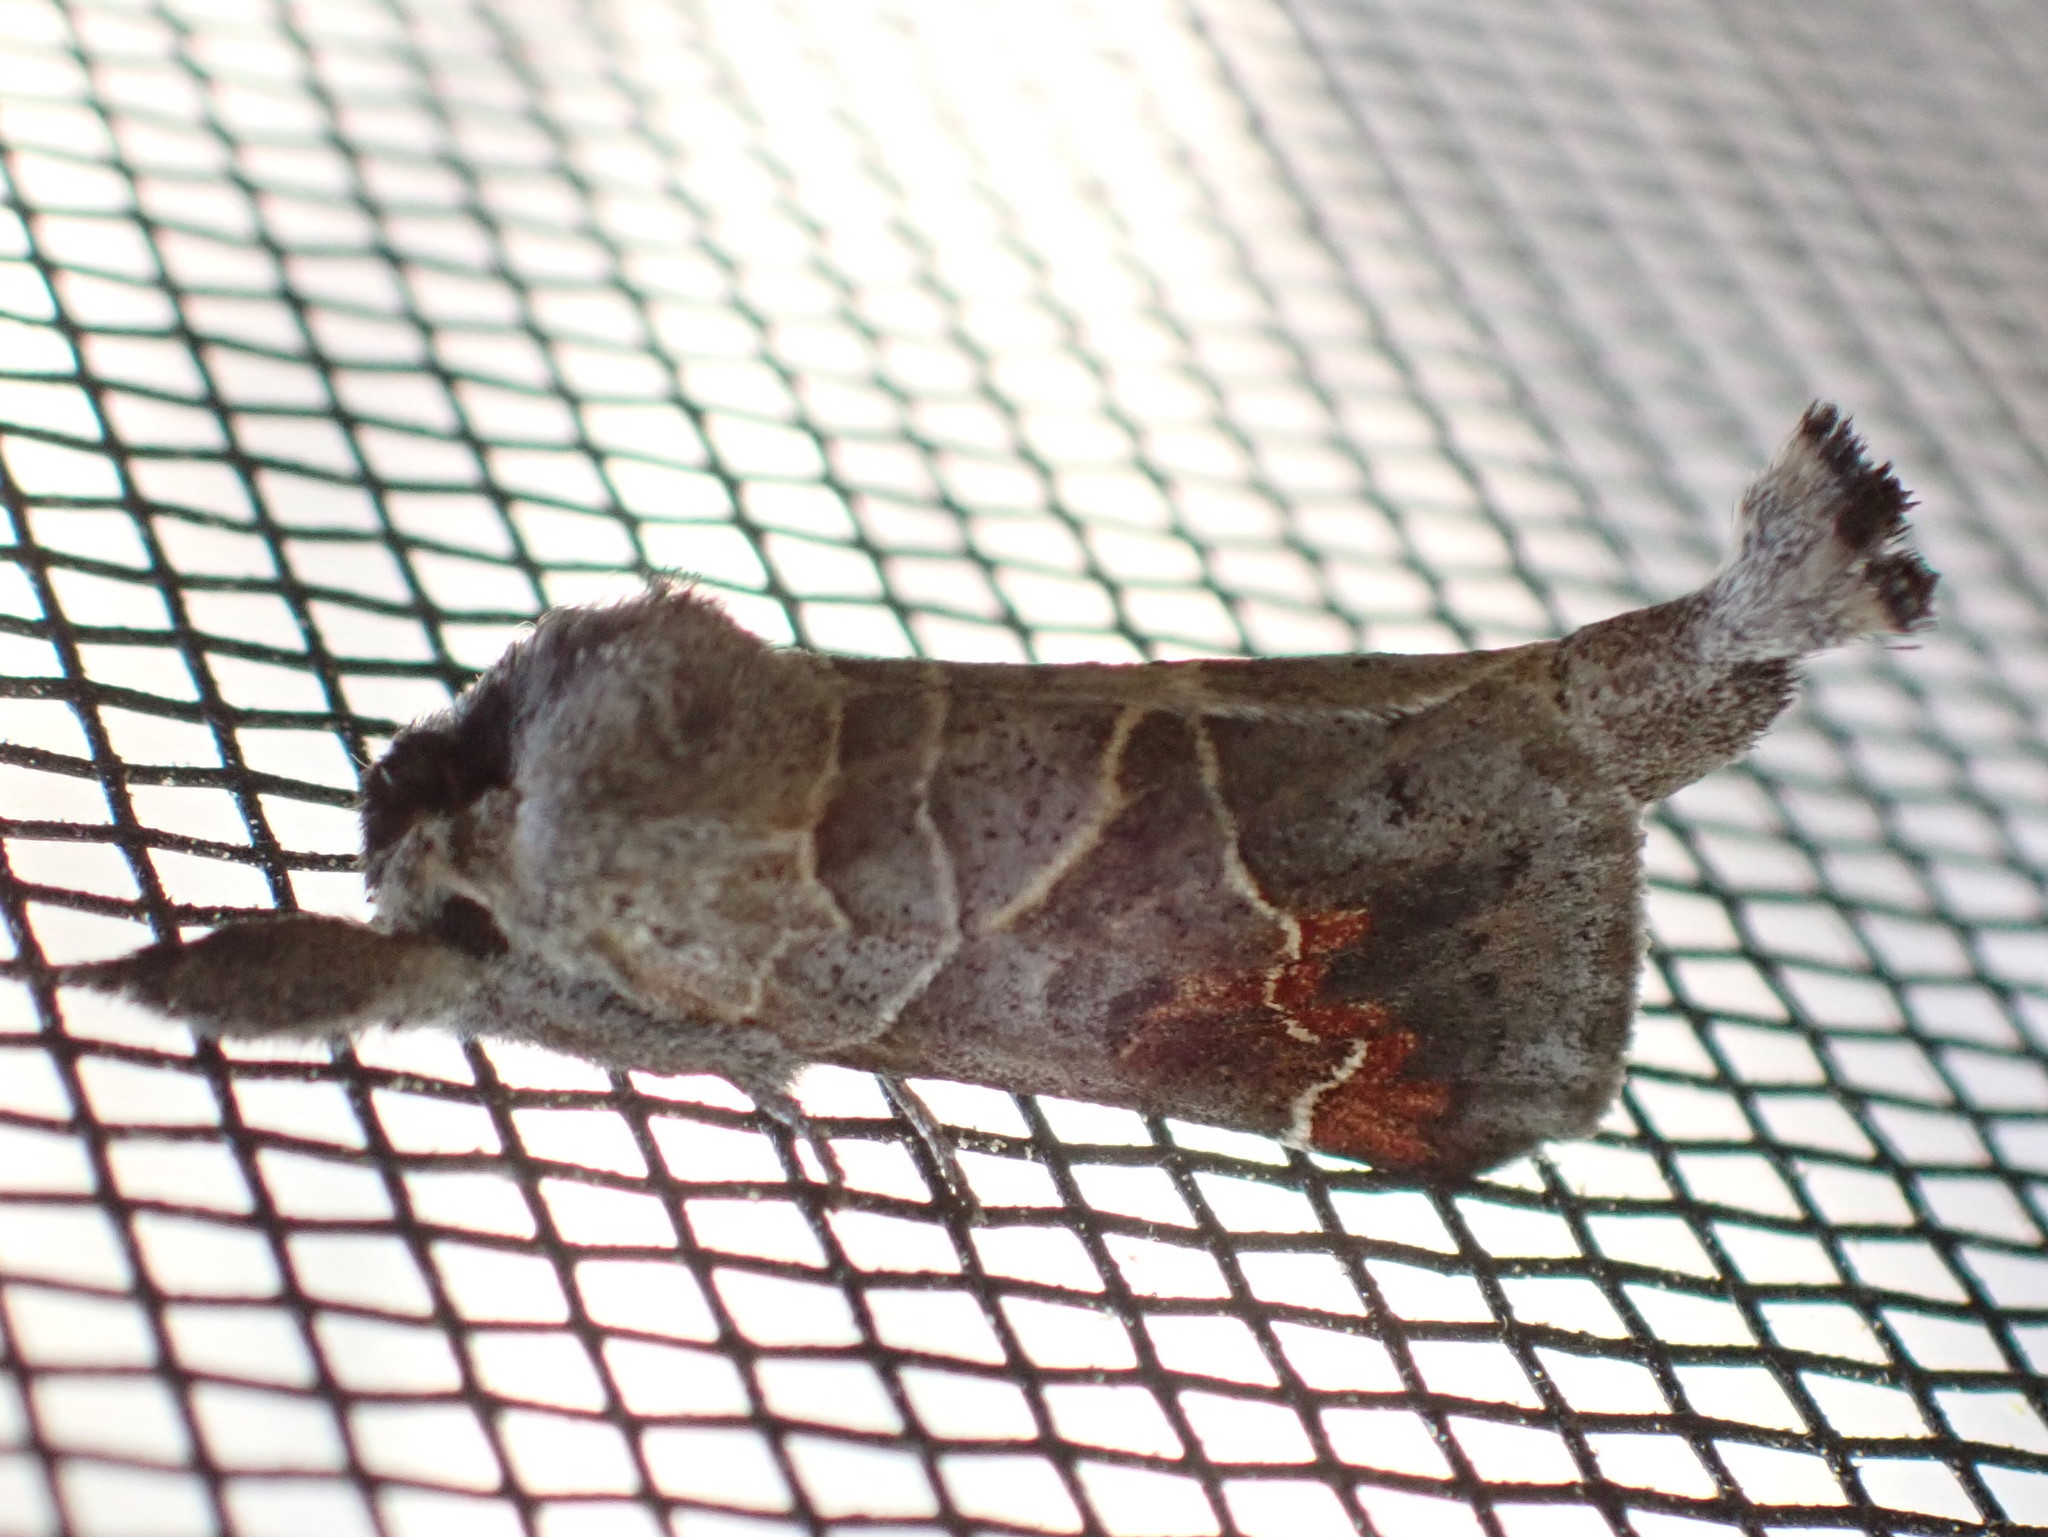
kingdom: Animalia
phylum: Arthropoda
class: Insecta
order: Lepidoptera
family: Notodontidae
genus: Clostera
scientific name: Clostera apicalis
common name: Apical prominent
